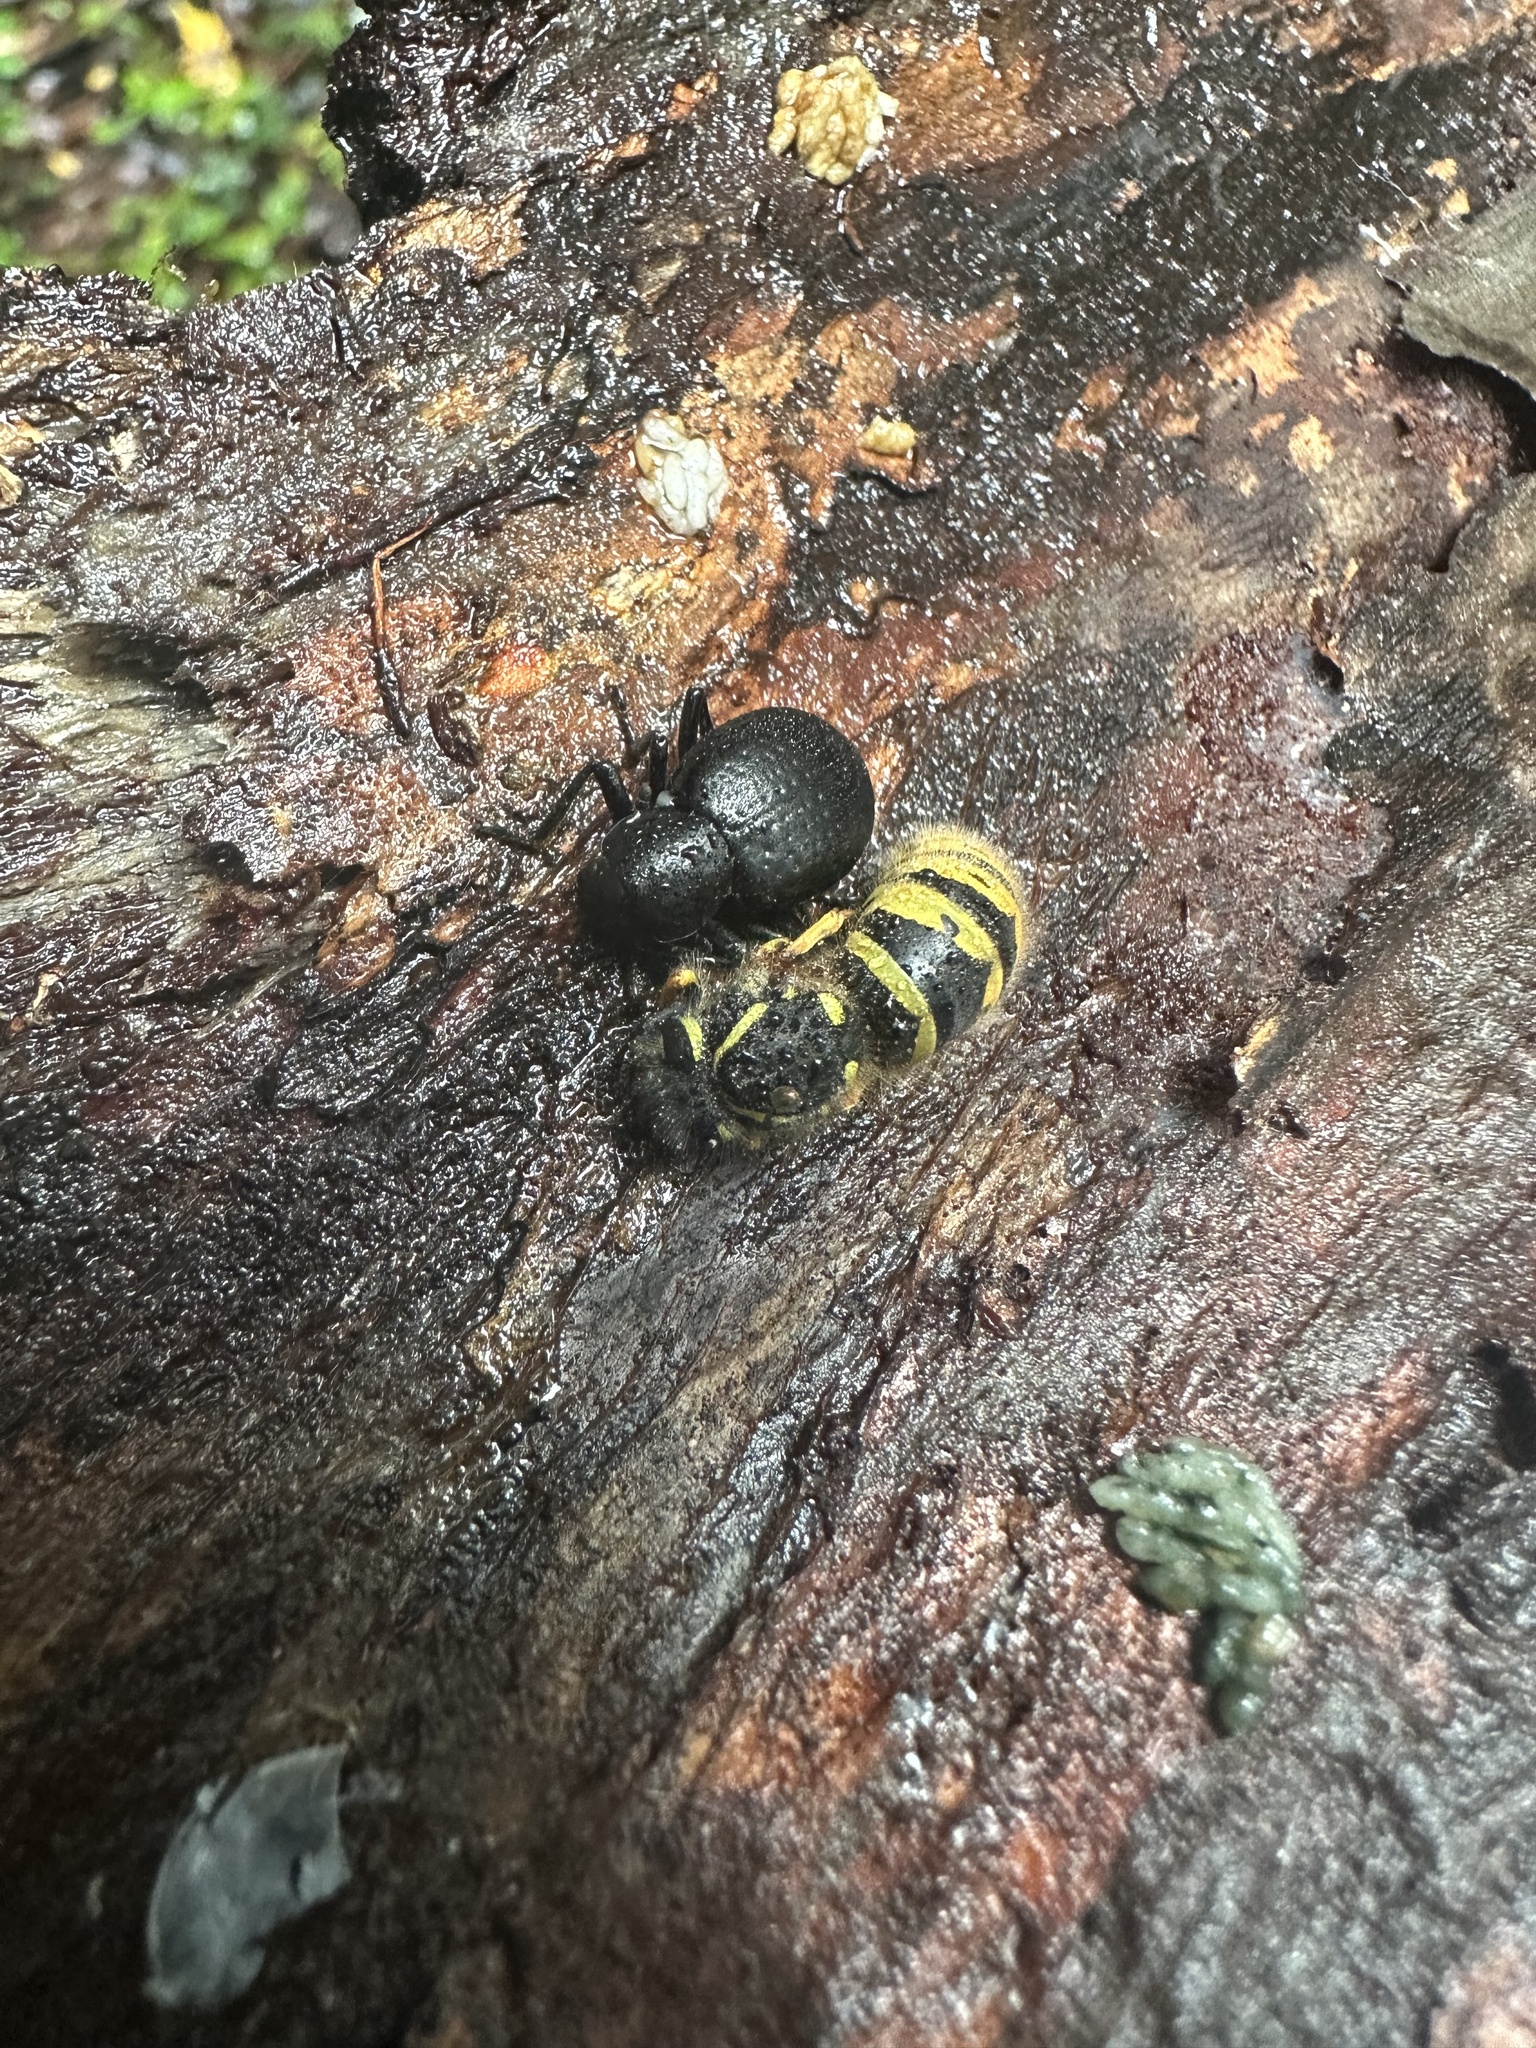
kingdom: Animalia
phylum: Arthropoda
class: Insecta
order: Hymenoptera
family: Vespidae
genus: Vespula
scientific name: Vespula vulgaris
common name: Common wasp
